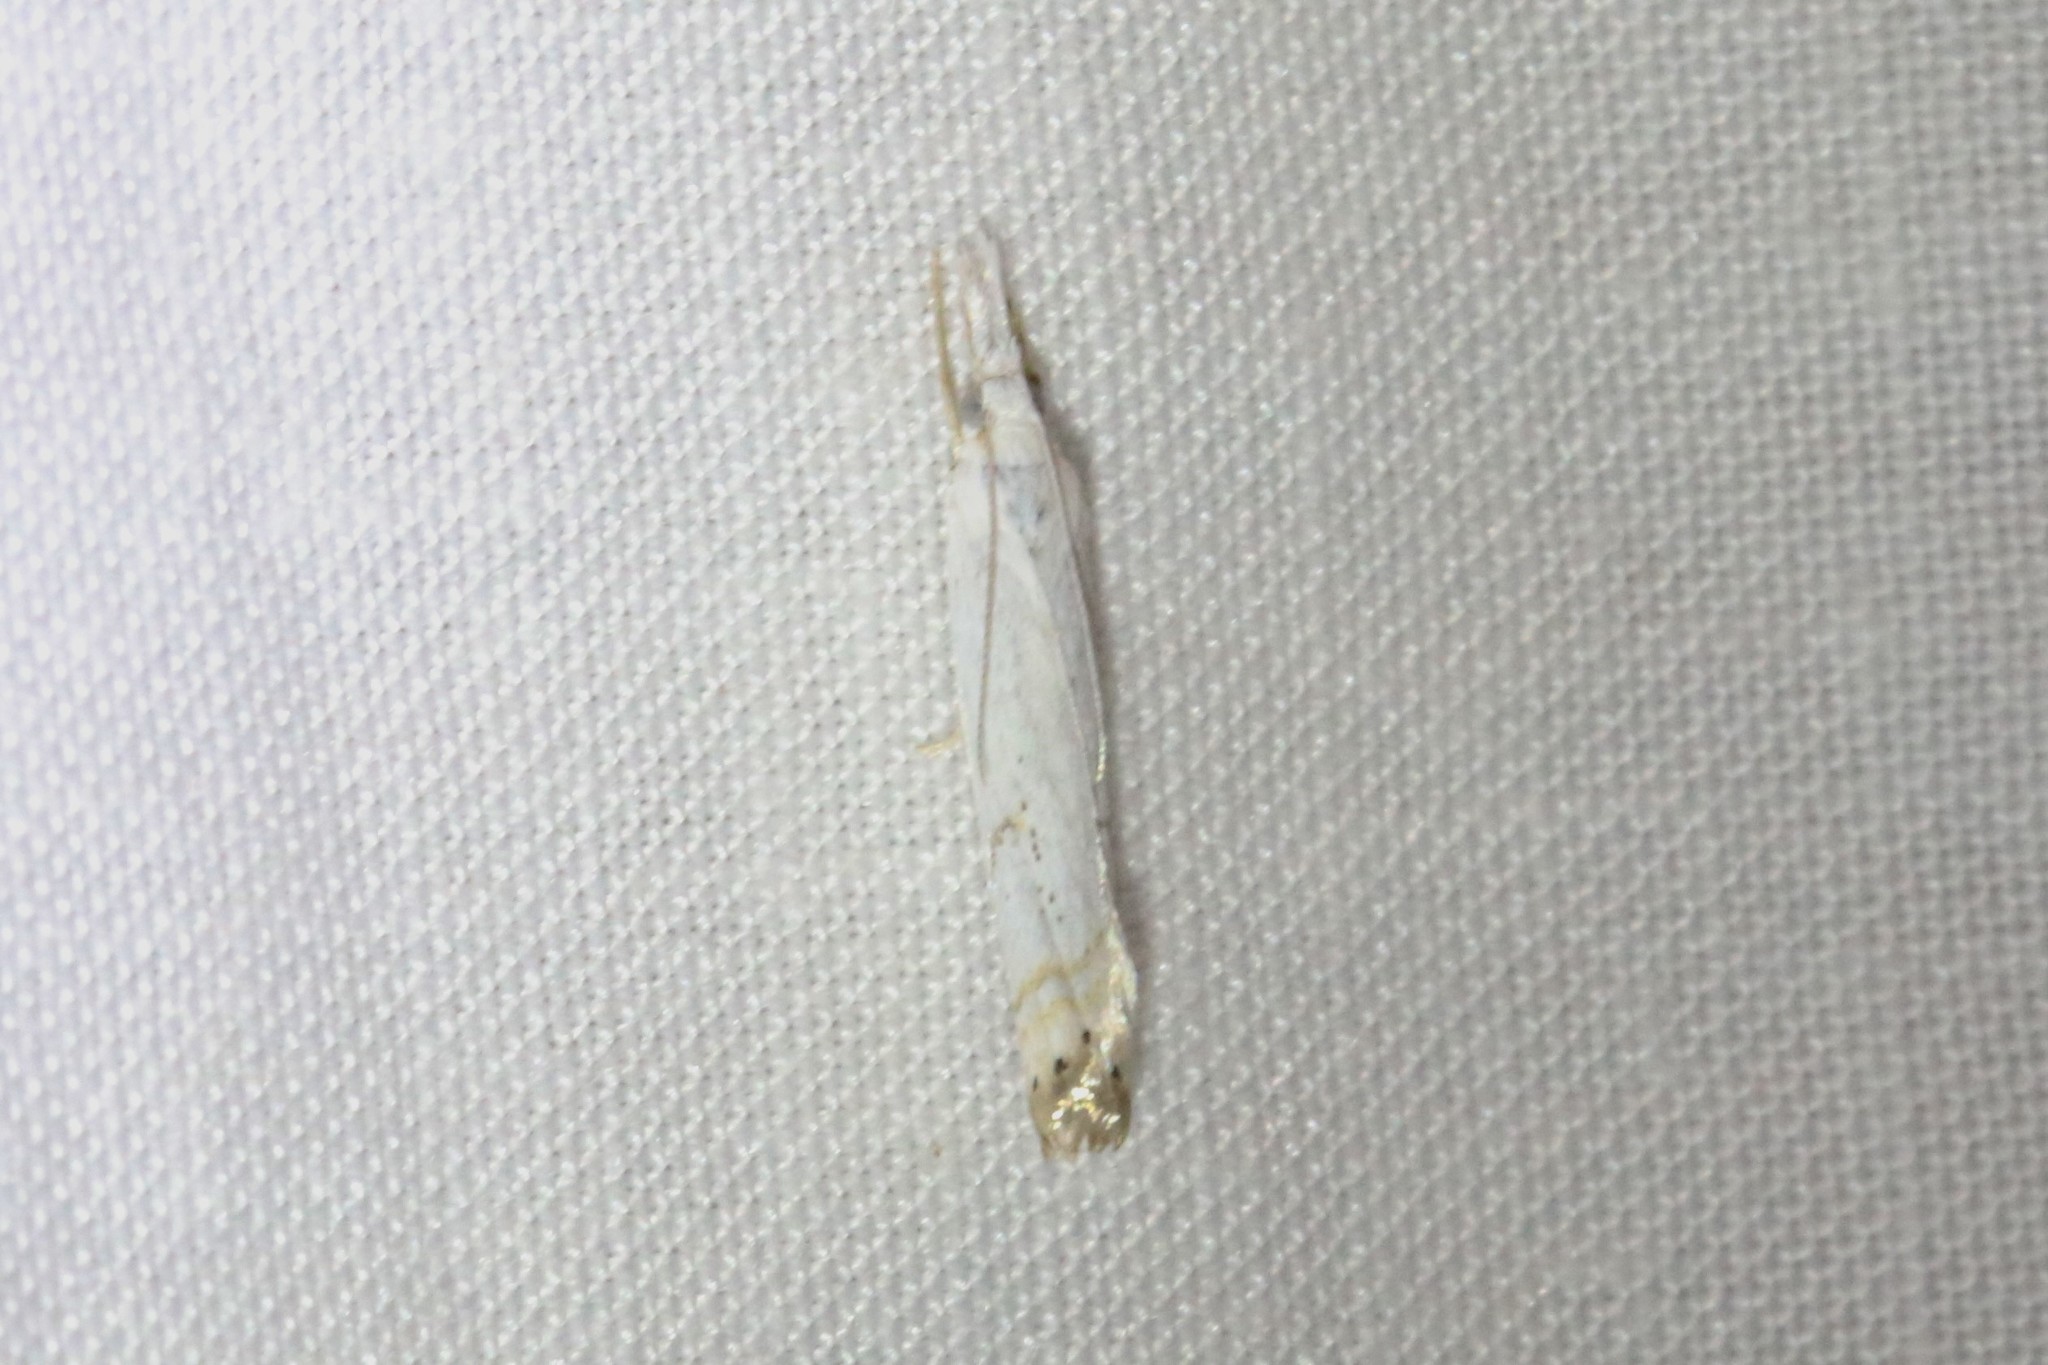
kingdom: Animalia
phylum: Arthropoda
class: Insecta
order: Lepidoptera
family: Crambidae
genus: Crambus
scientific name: Crambus albellus
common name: Small white grass-veneer
